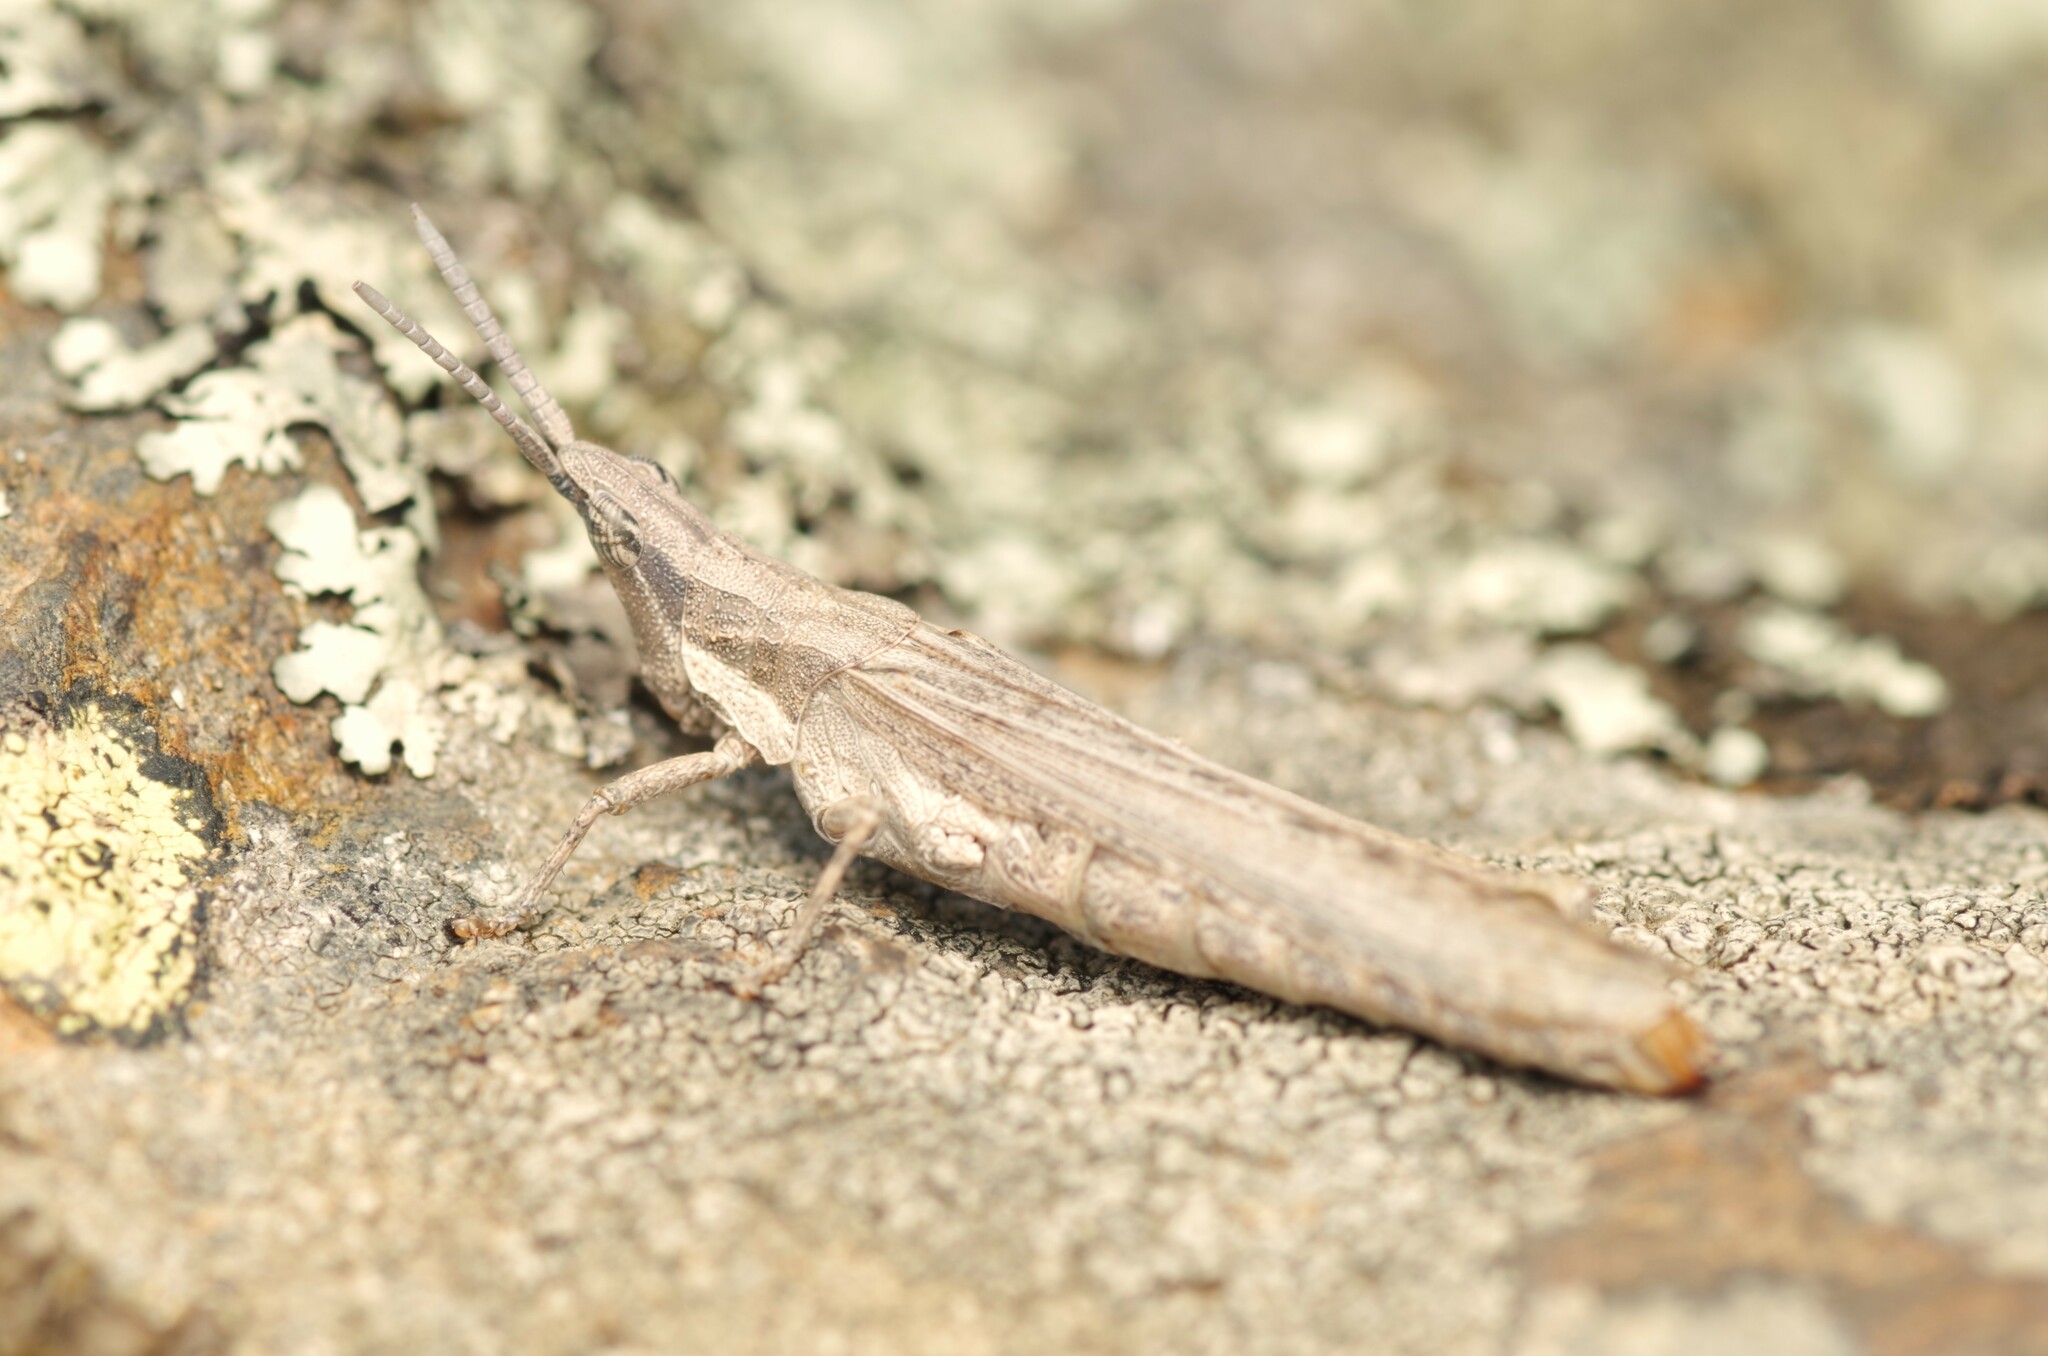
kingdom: Animalia
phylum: Arthropoda
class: Insecta
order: Orthoptera
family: Pyrgomorphidae
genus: Pyrgomorpha
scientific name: Pyrgomorpha conica
